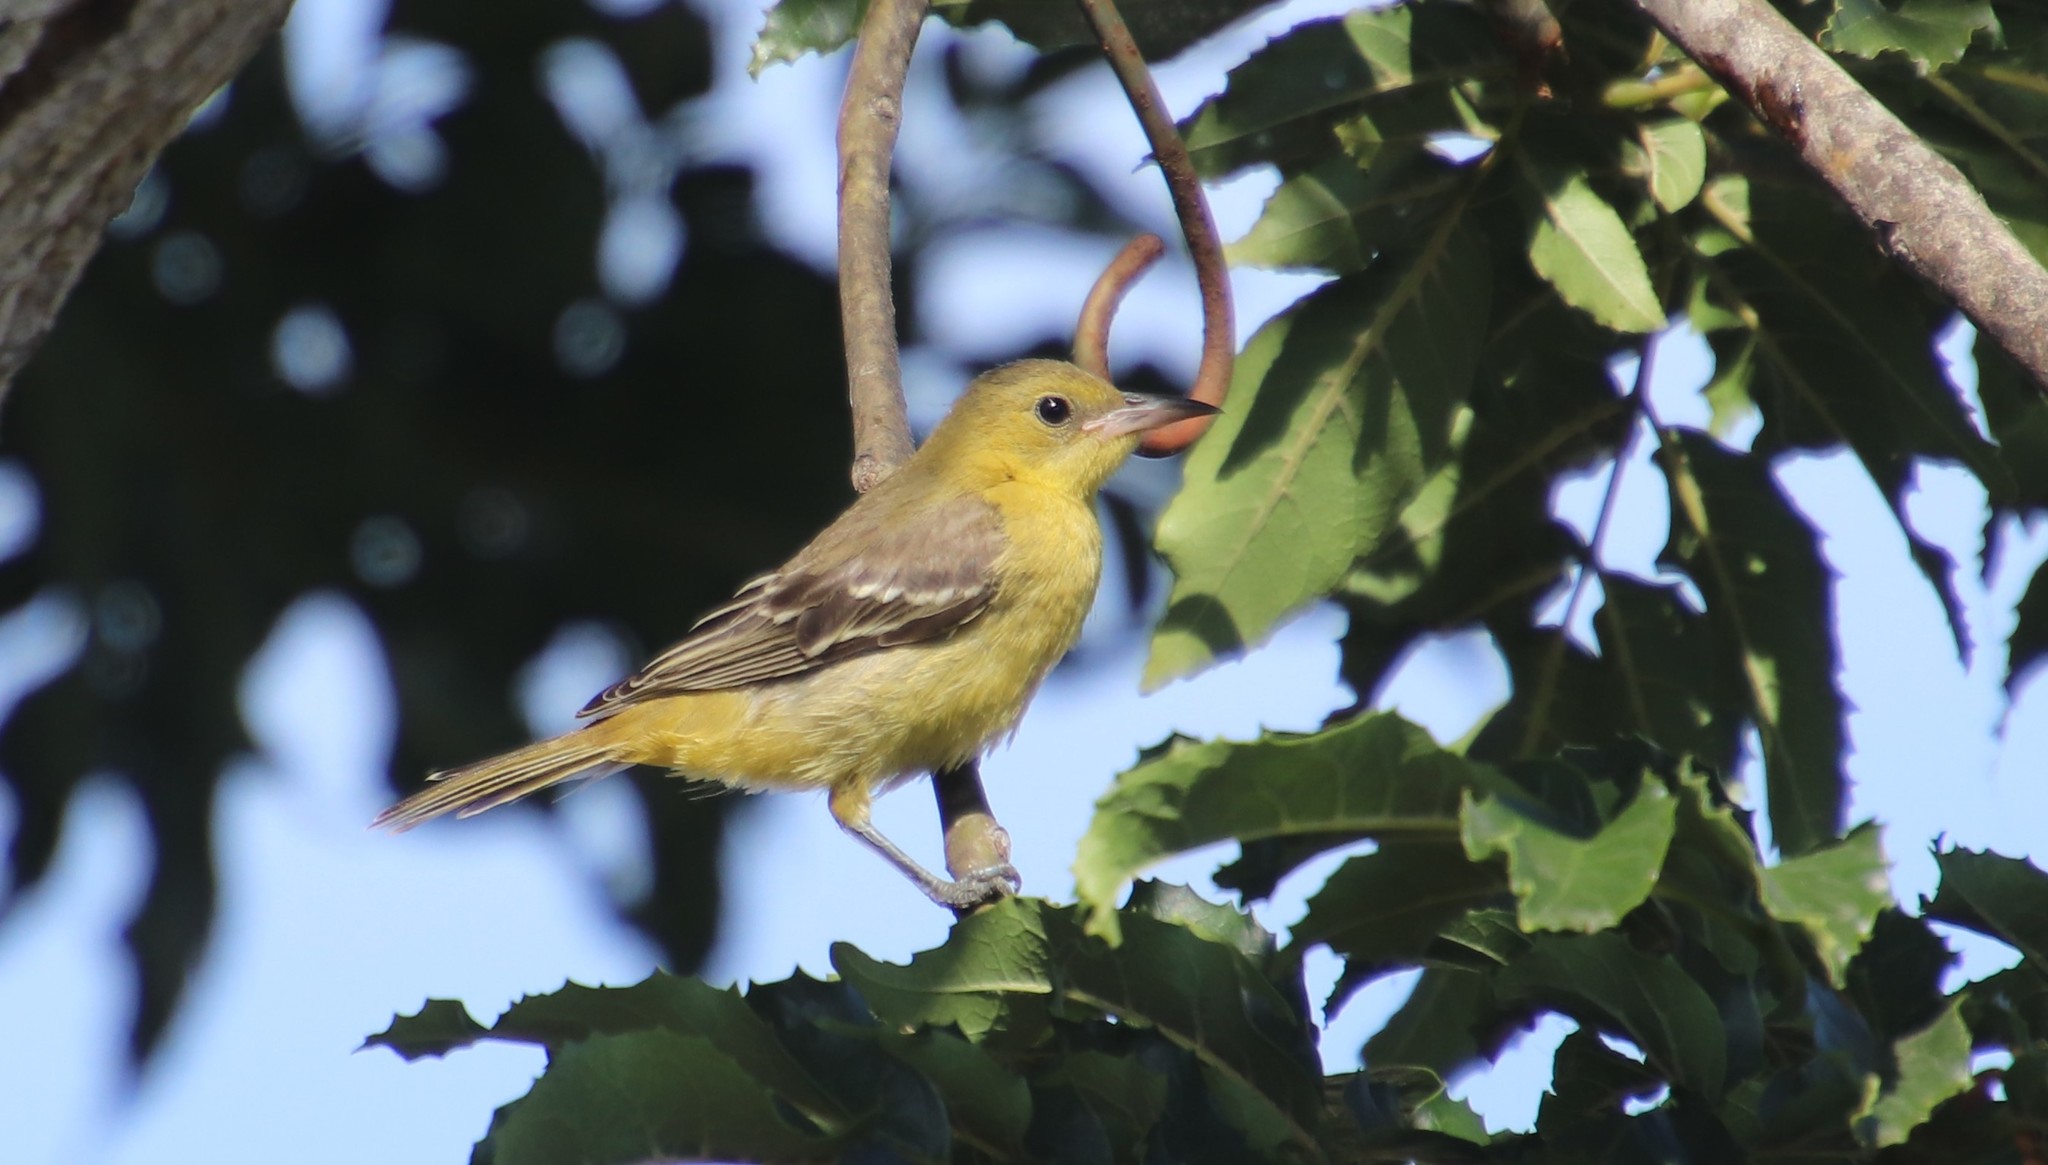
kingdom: Animalia
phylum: Chordata
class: Aves
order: Passeriformes
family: Icteridae
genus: Icterus
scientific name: Icterus cucullatus
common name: Hooded oriole
